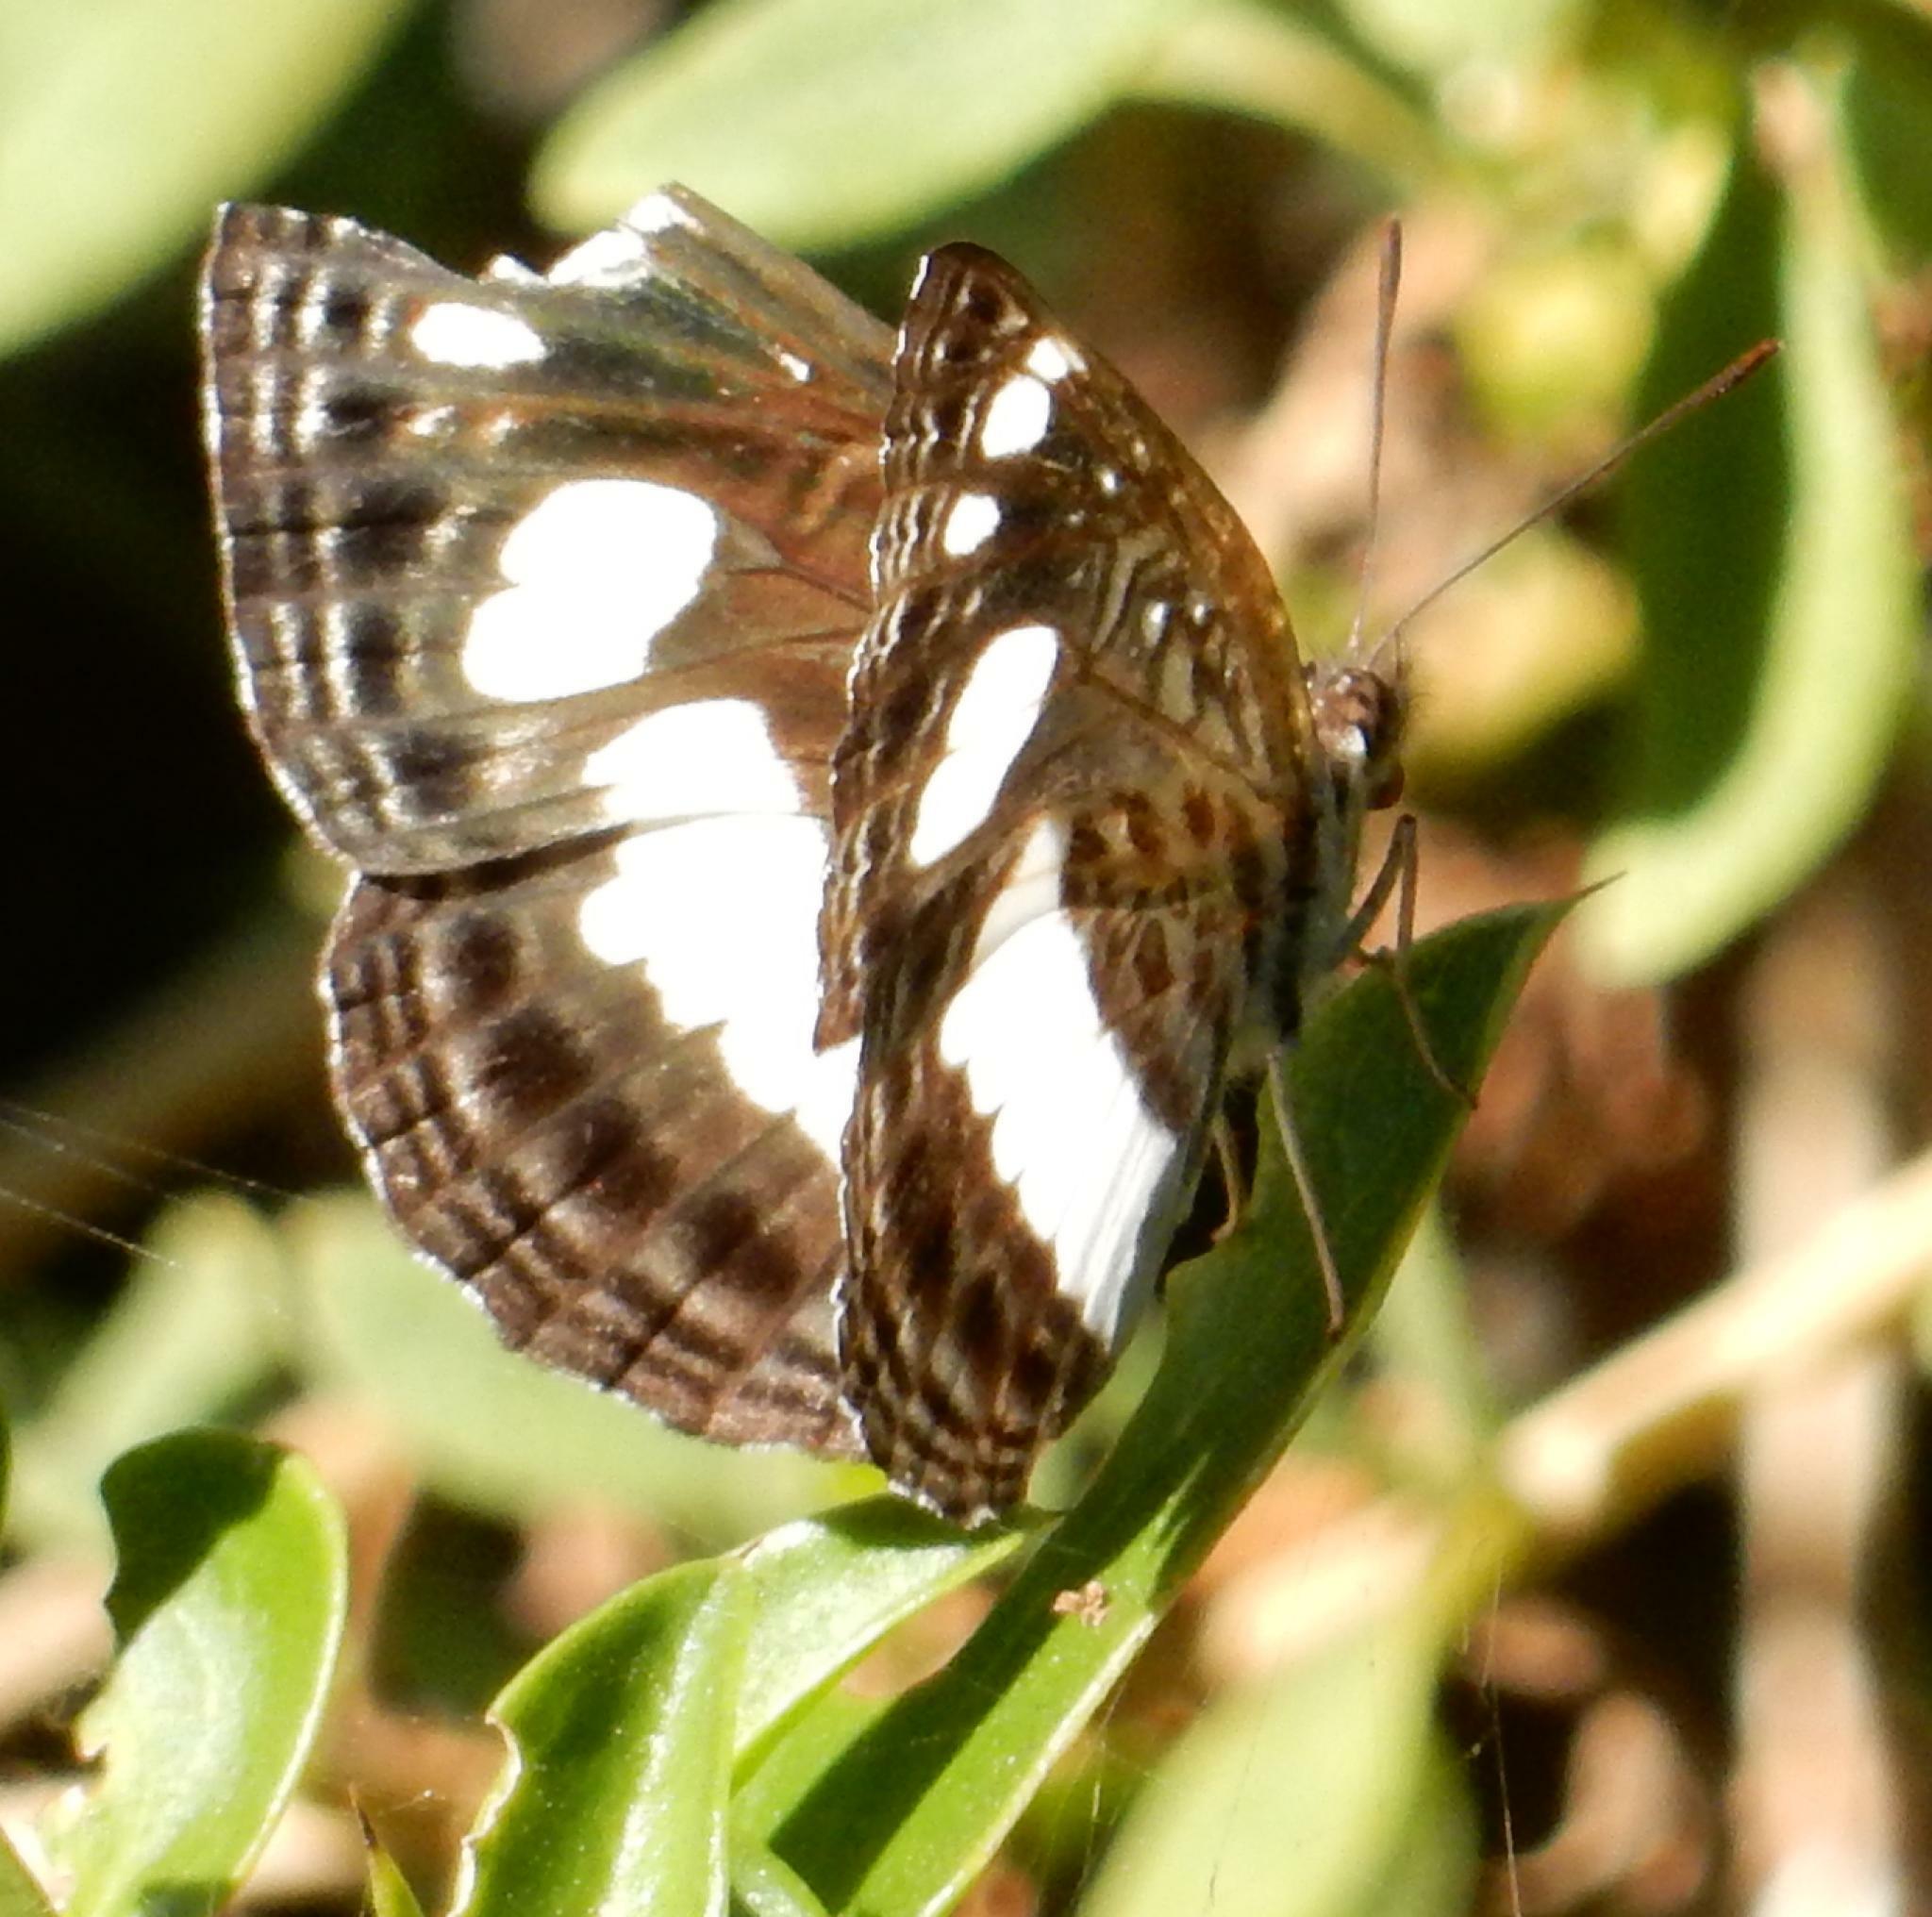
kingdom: Animalia
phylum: Arthropoda
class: Insecta
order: Lepidoptera
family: Nymphalidae
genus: Neptis
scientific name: Neptis saclava
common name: Small spotted sailor
